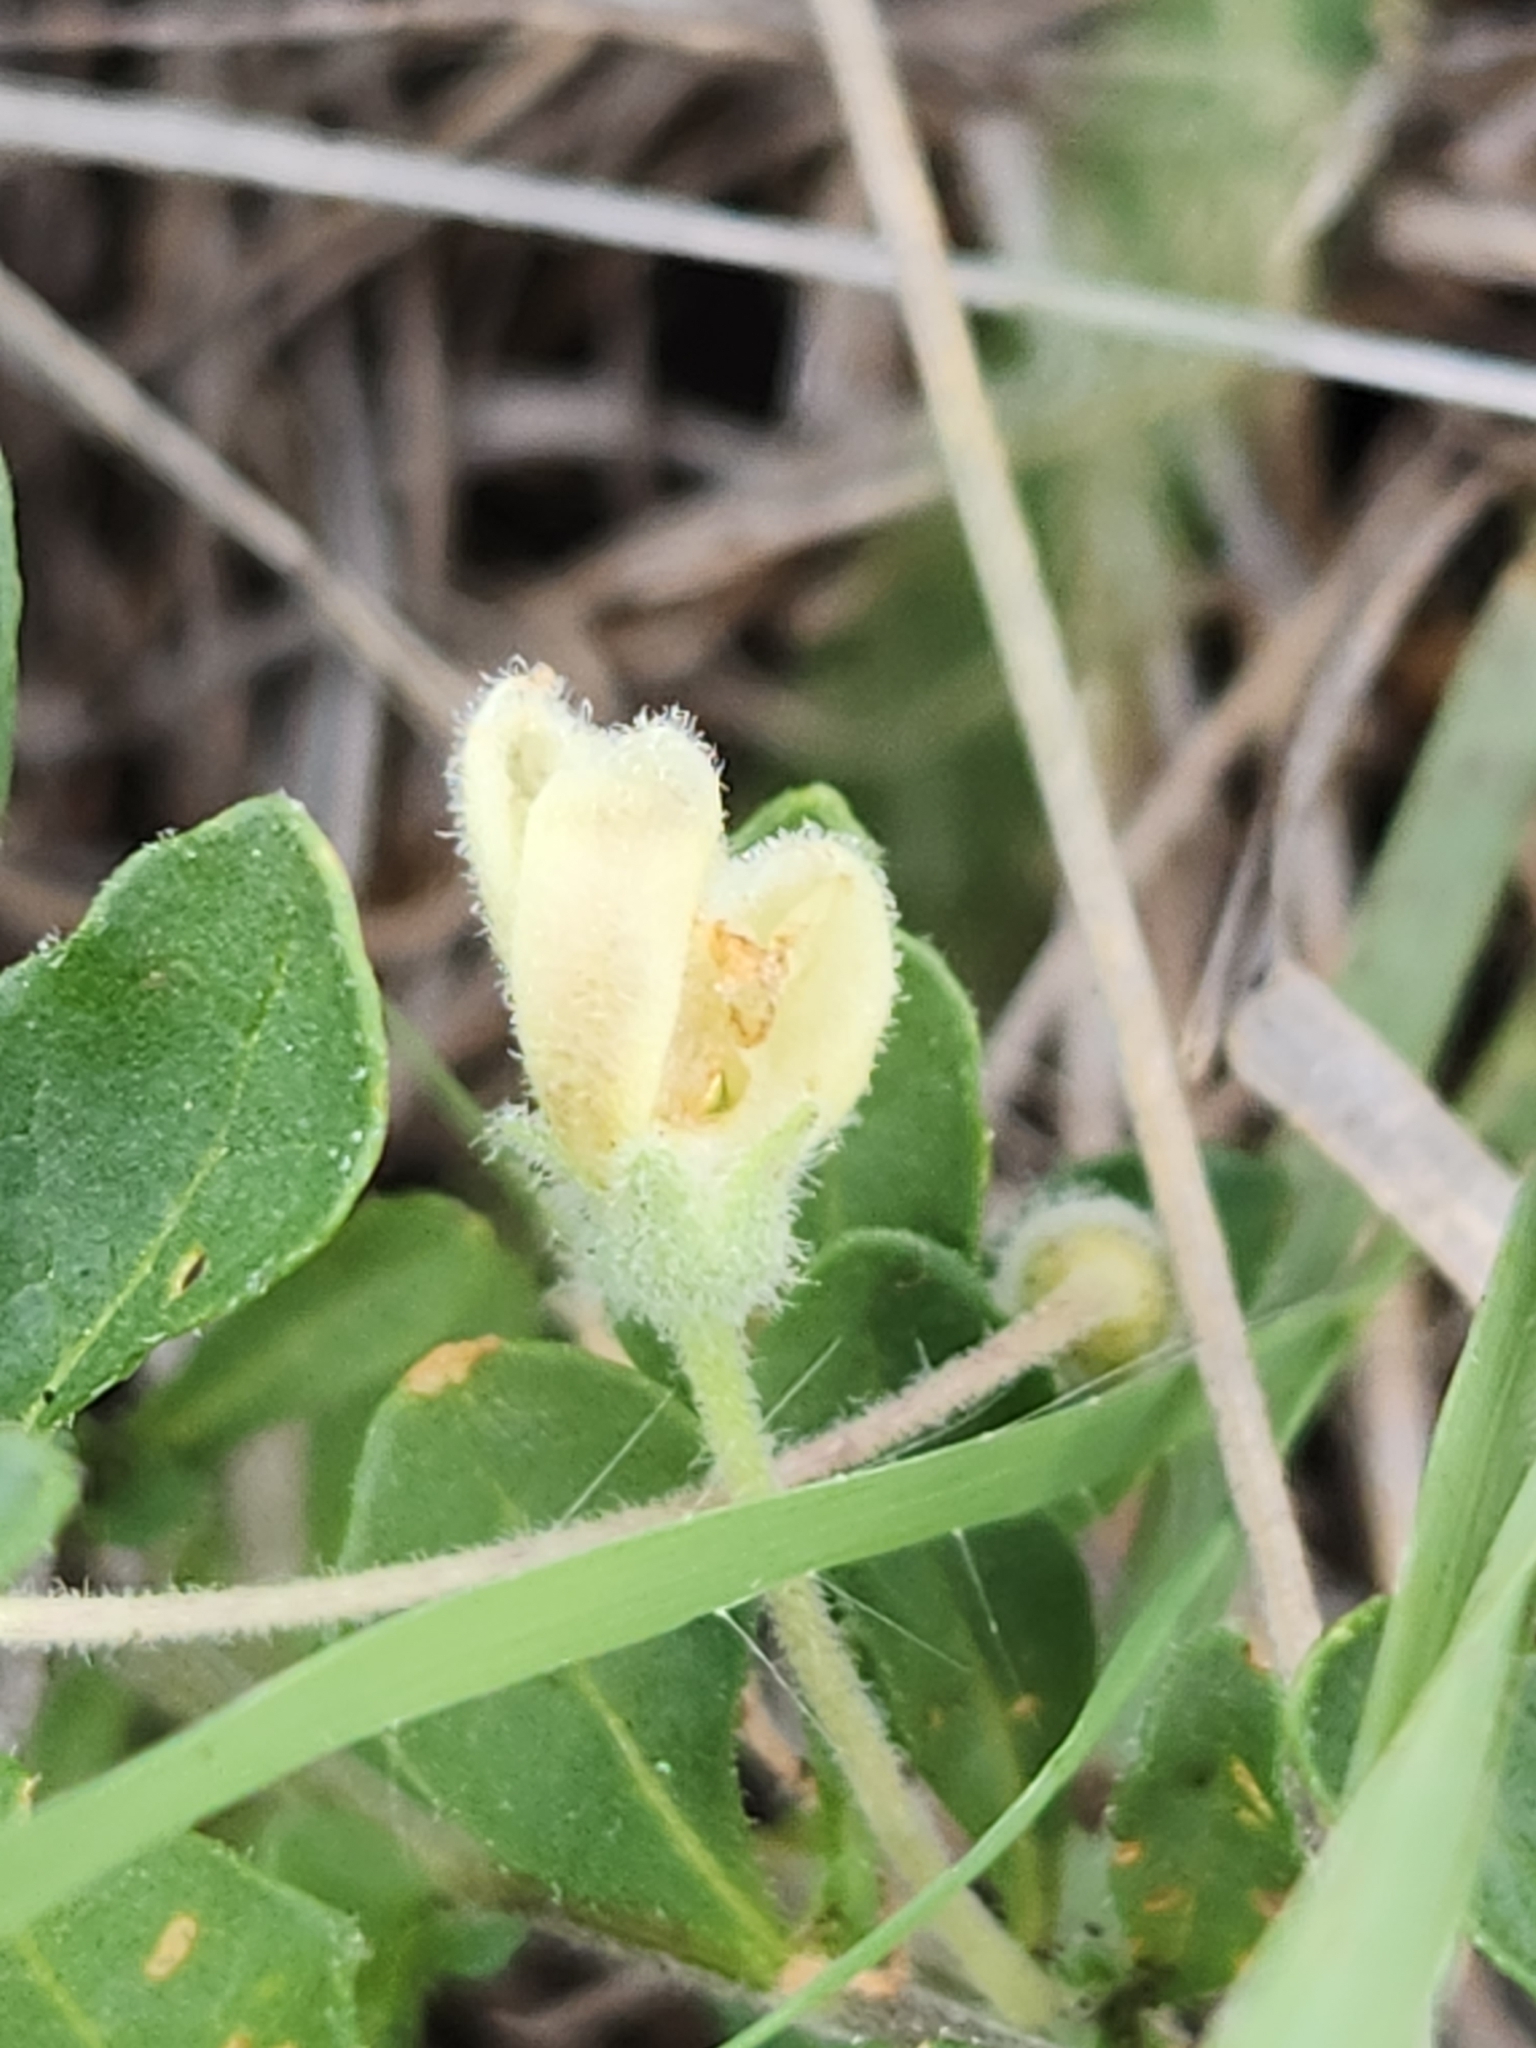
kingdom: Plantae
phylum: Tracheophyta
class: Magnoliopsida
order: Solanales
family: Solanaceae
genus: Chamaesaracha
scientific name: Chamaesaracha edwardsiana
